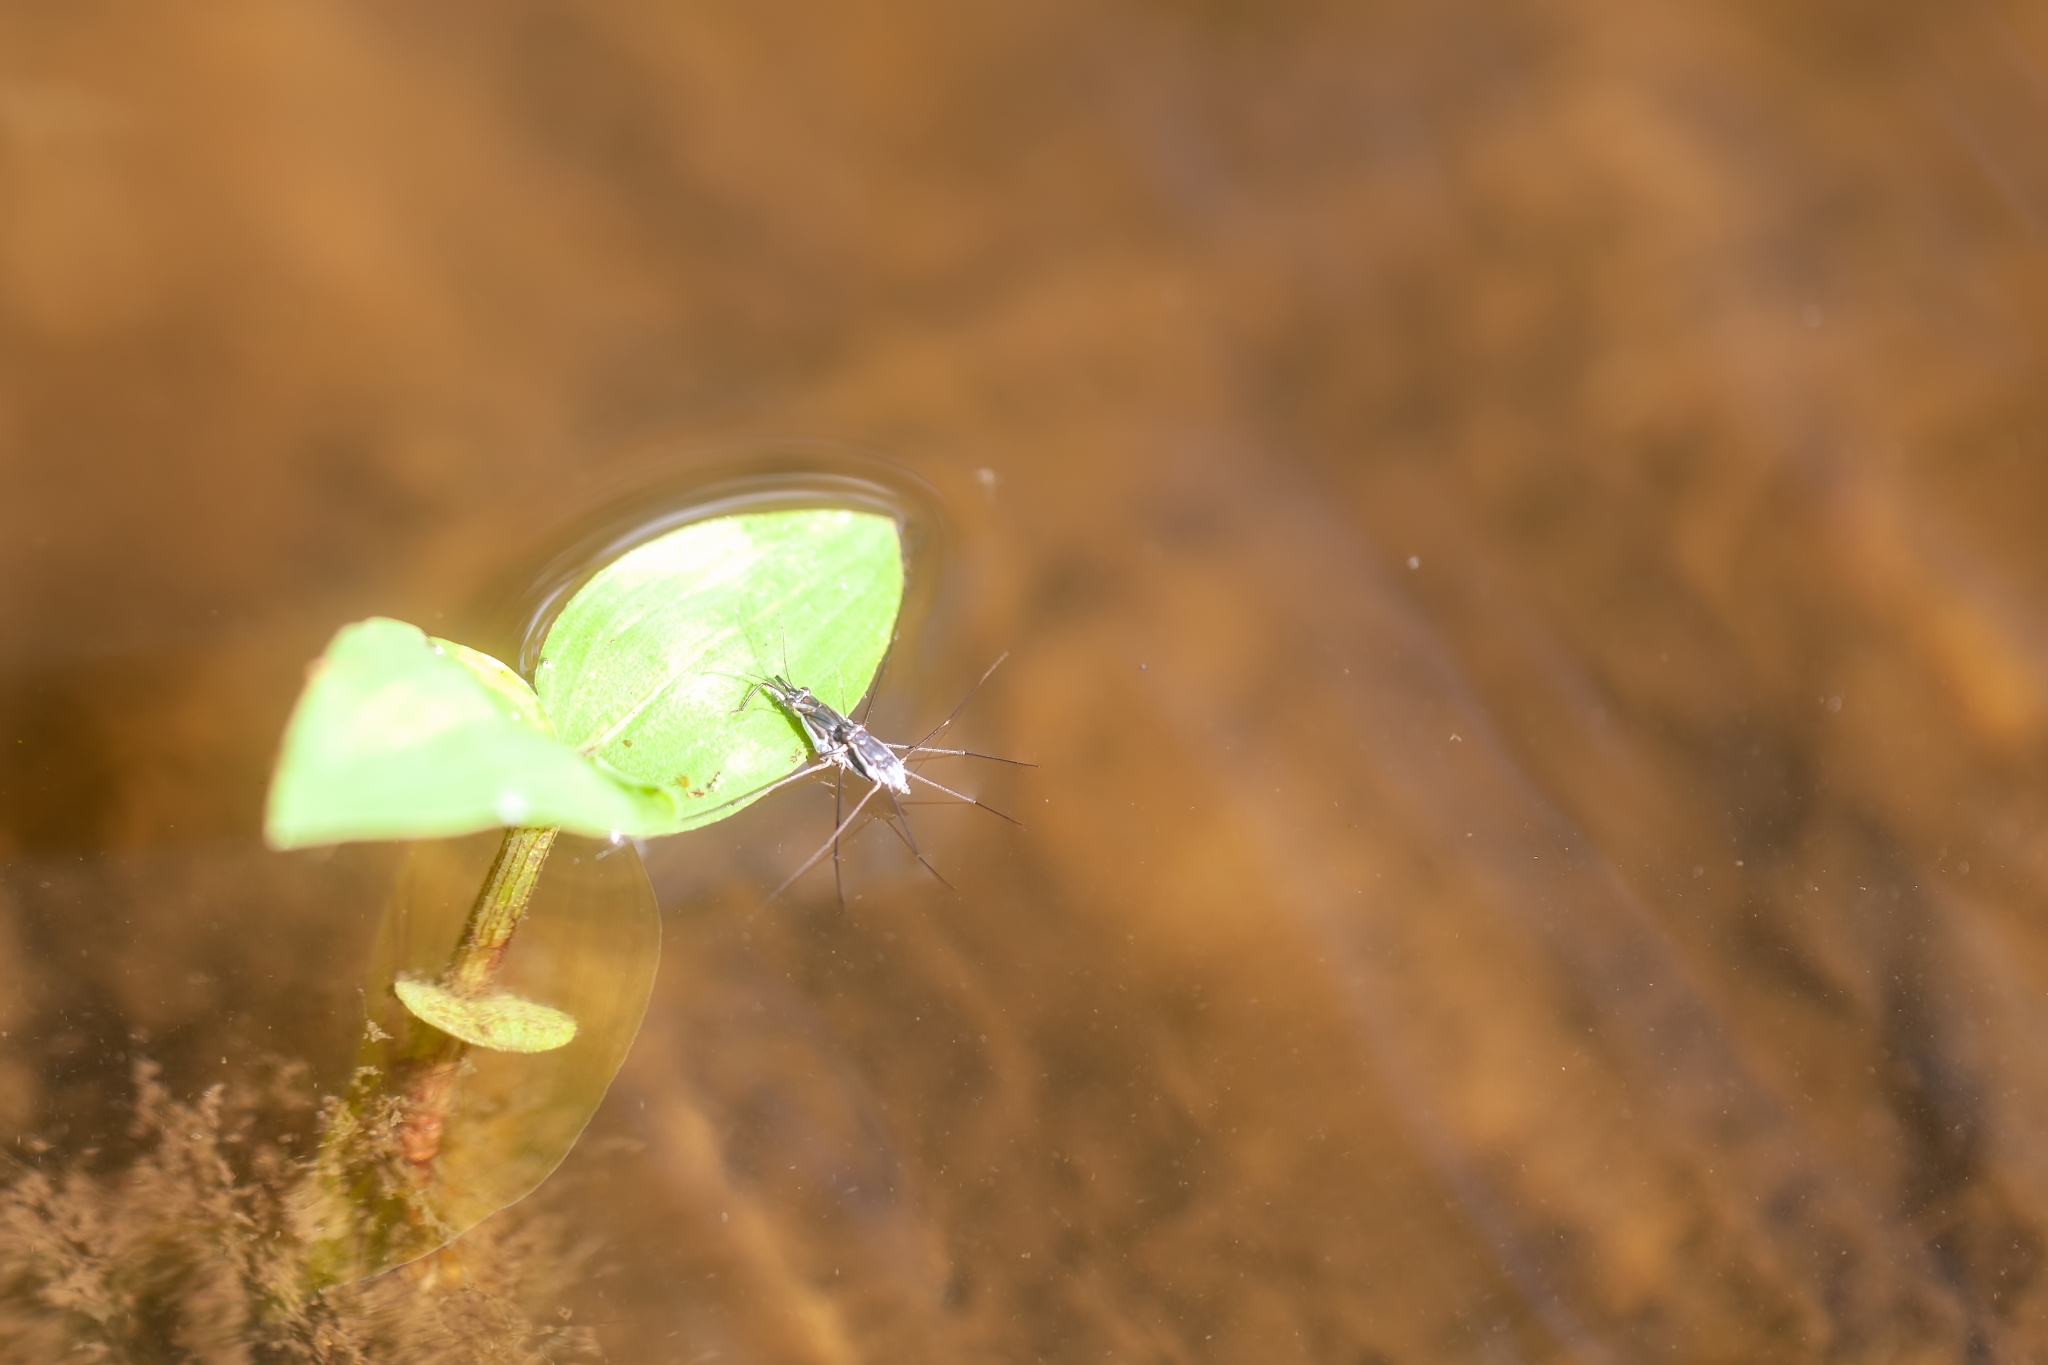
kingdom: Animalia
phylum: Arthropoda
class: Insecta
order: Hemiptera
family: Gerridae
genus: Neogerris
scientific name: Neogerris hesione
